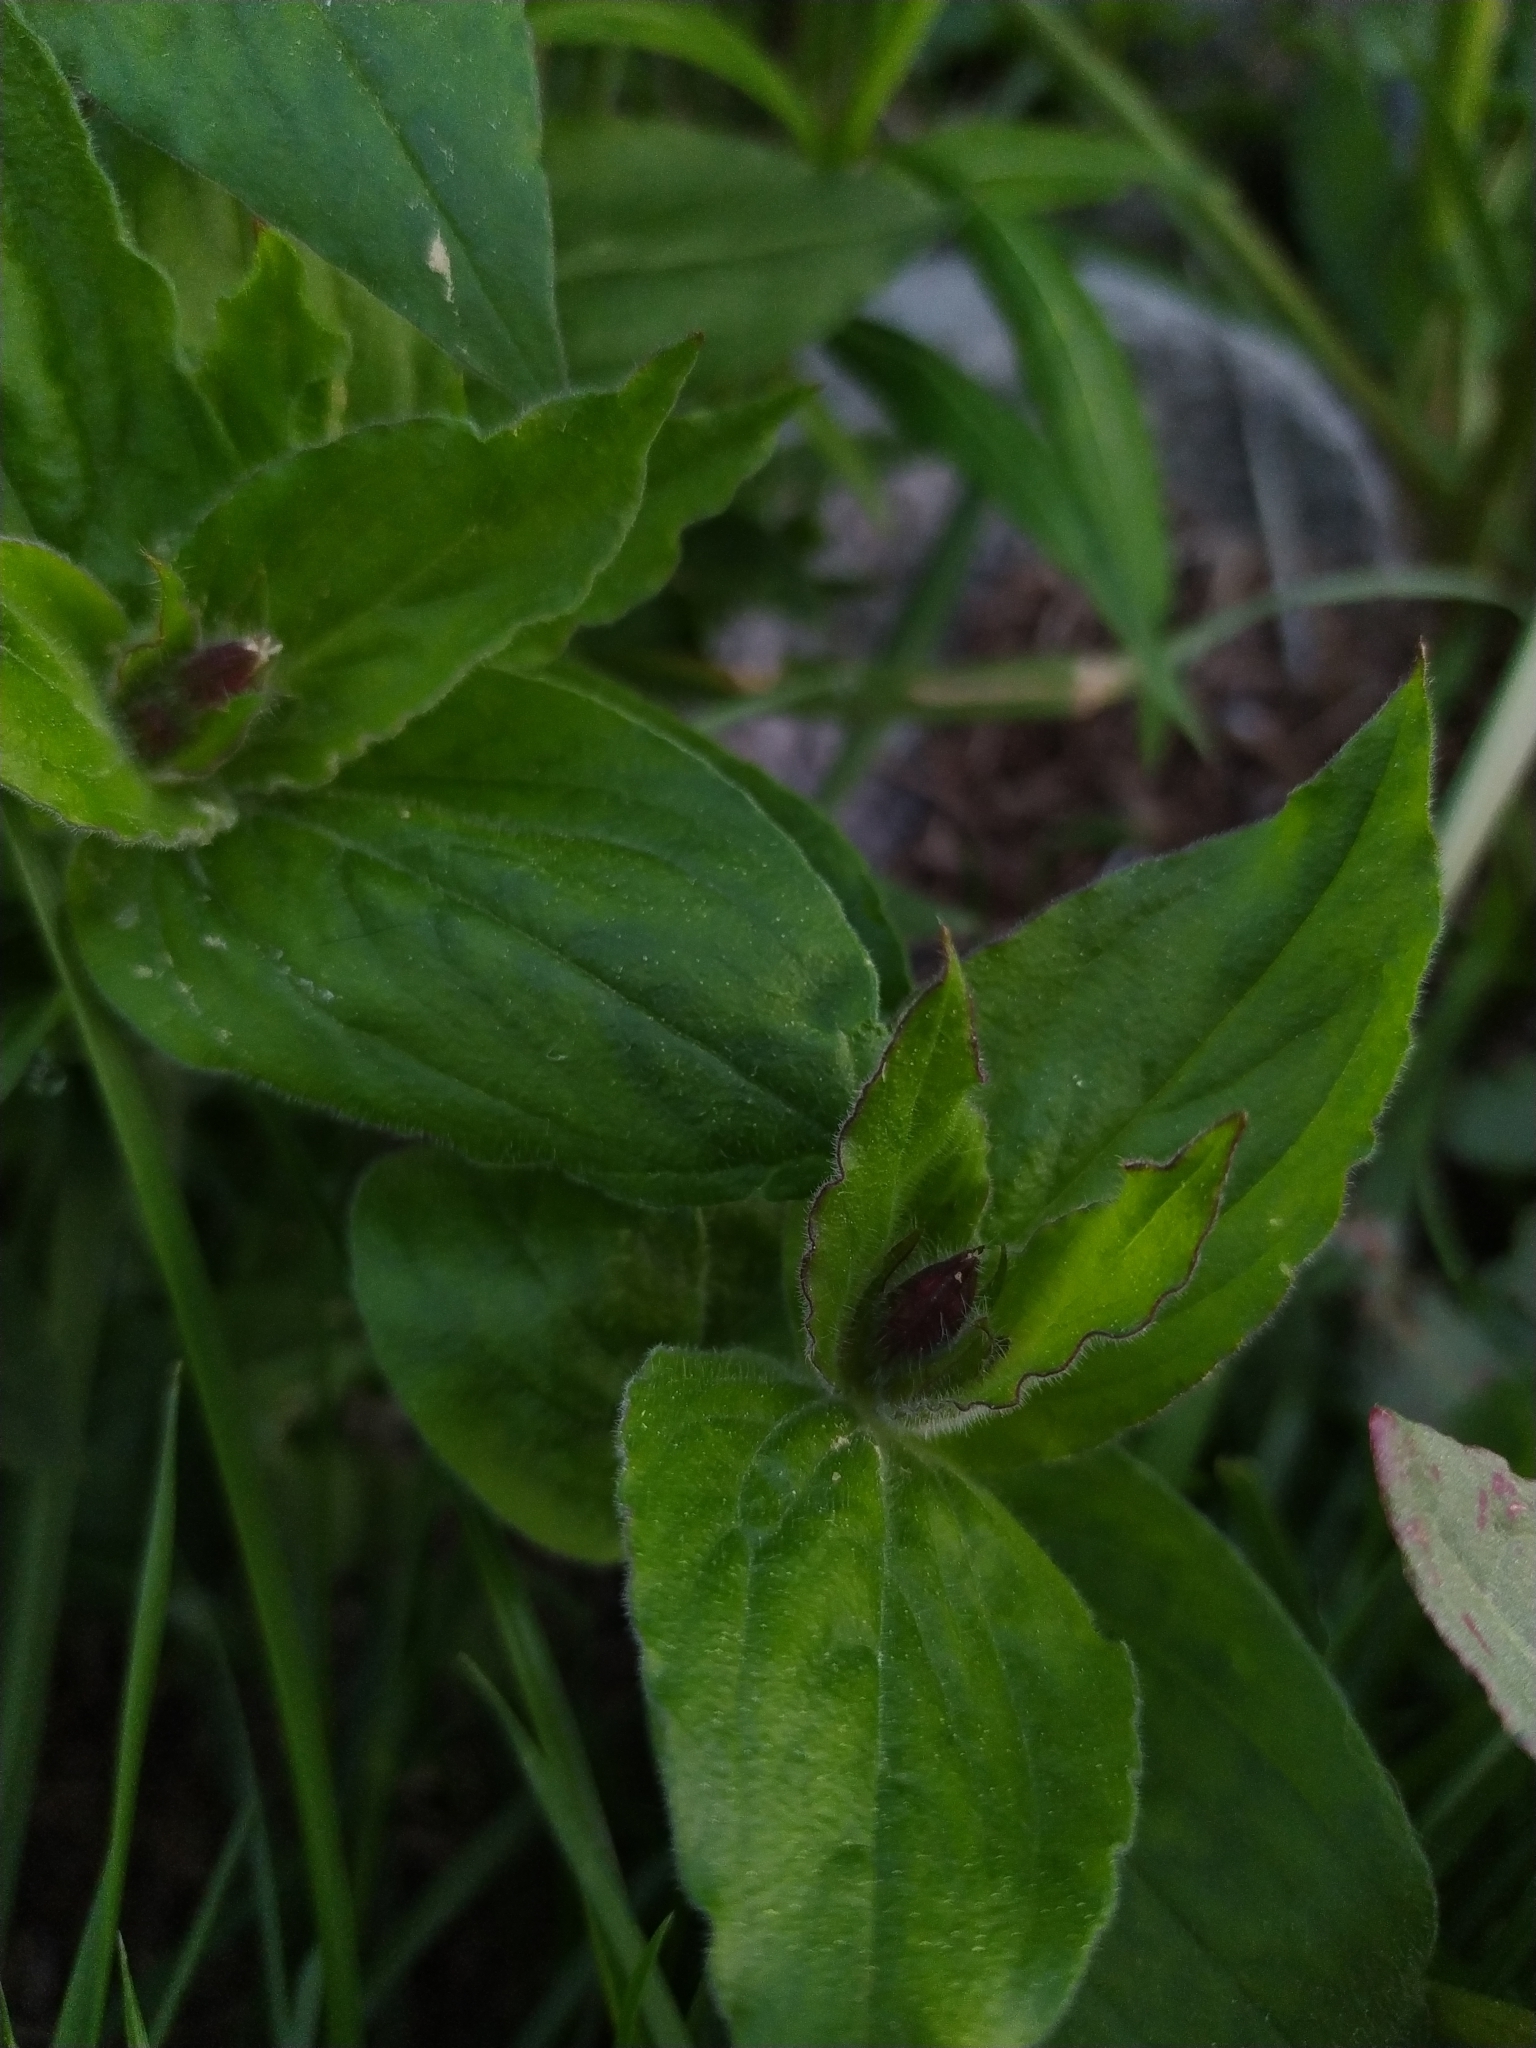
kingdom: Plantae
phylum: Tracheophyta
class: Magnoliopsida
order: Caryophyllales
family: Caryophyllaceae
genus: Silene
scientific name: Silene dioica
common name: Red campion
